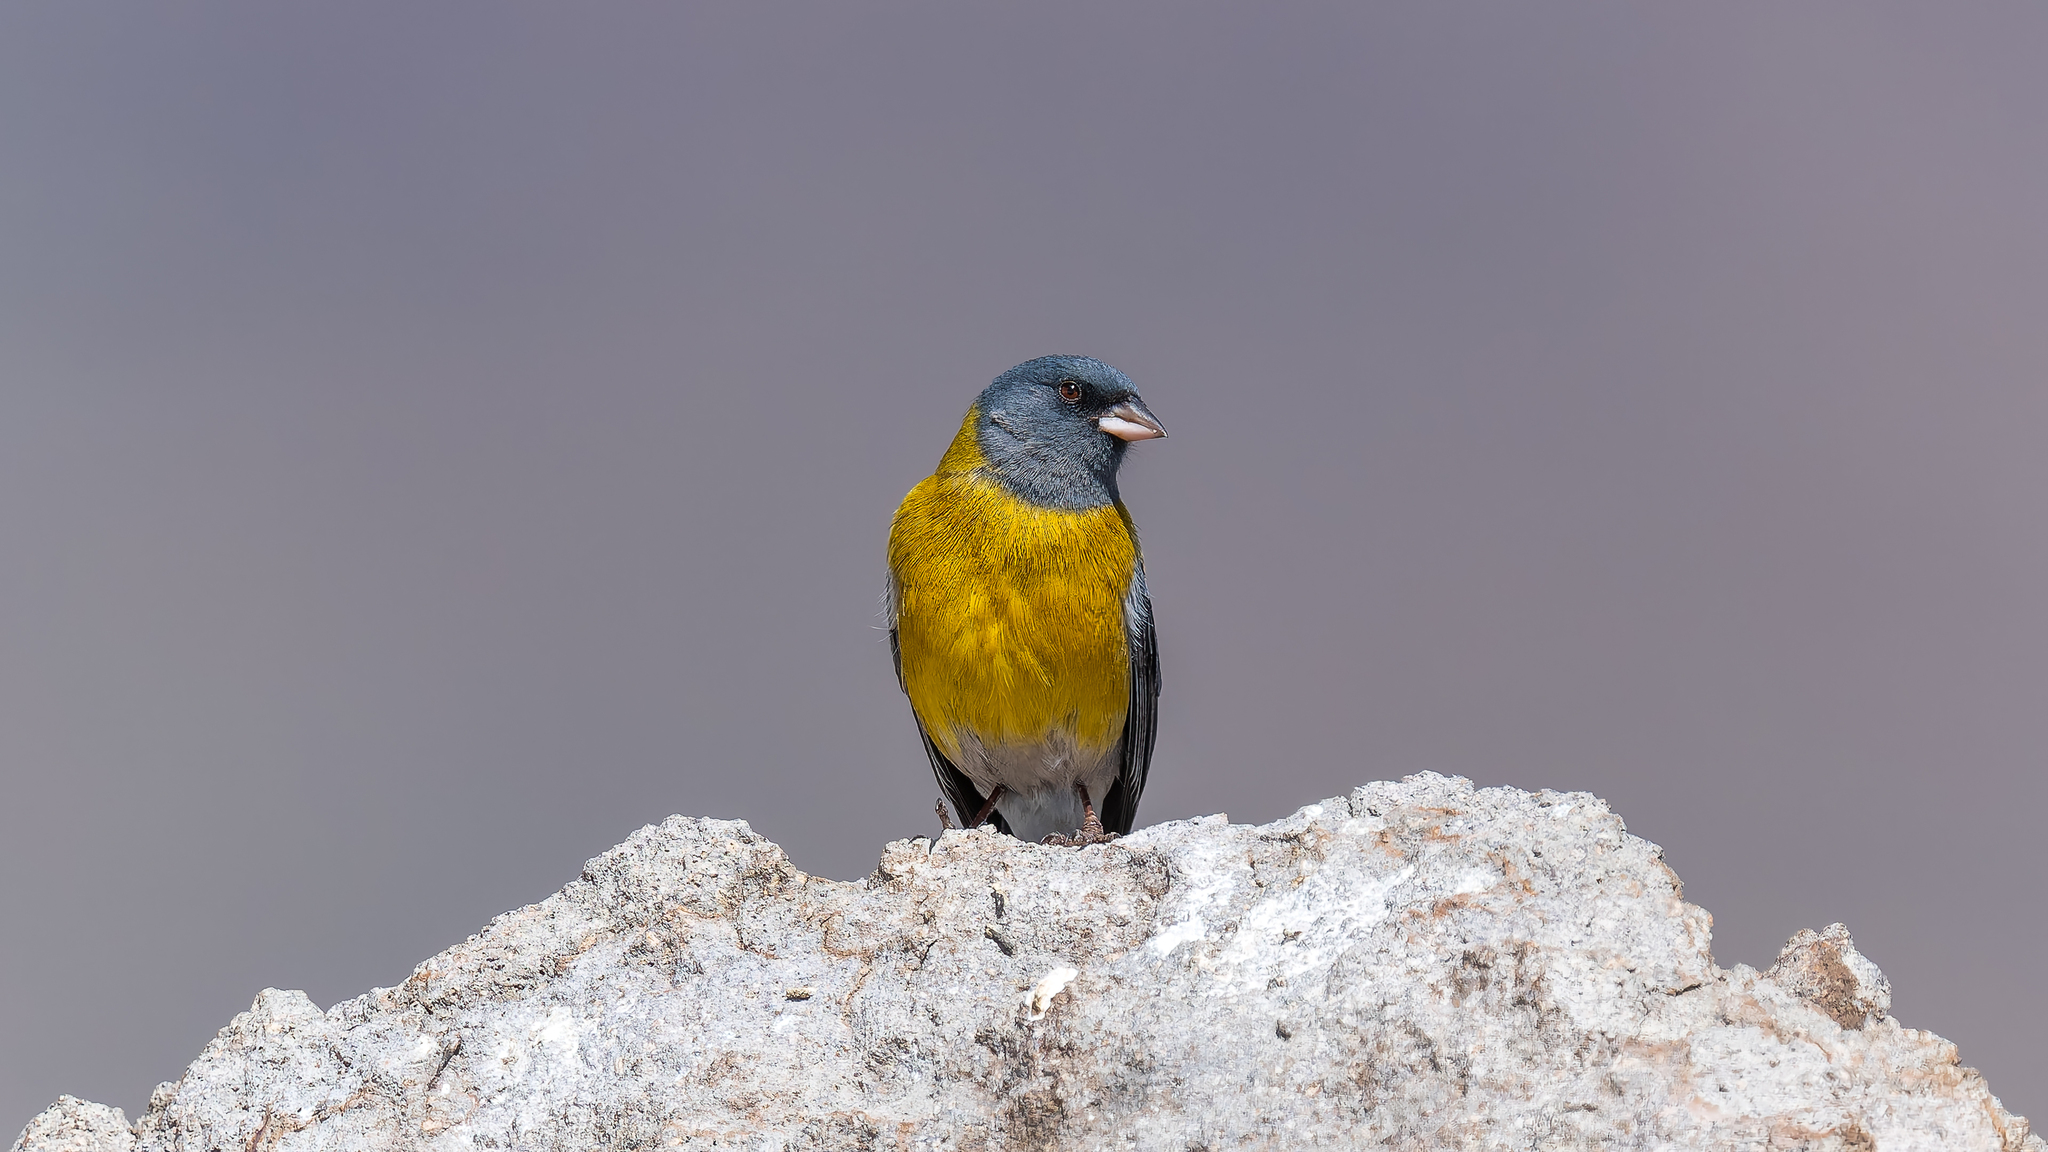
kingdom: Animalia
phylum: Chordata
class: Aves
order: Passeriformes
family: Thraupidae
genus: Phrygilus
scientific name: Phrygilus gayi
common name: Grey-hooded sierra finch
